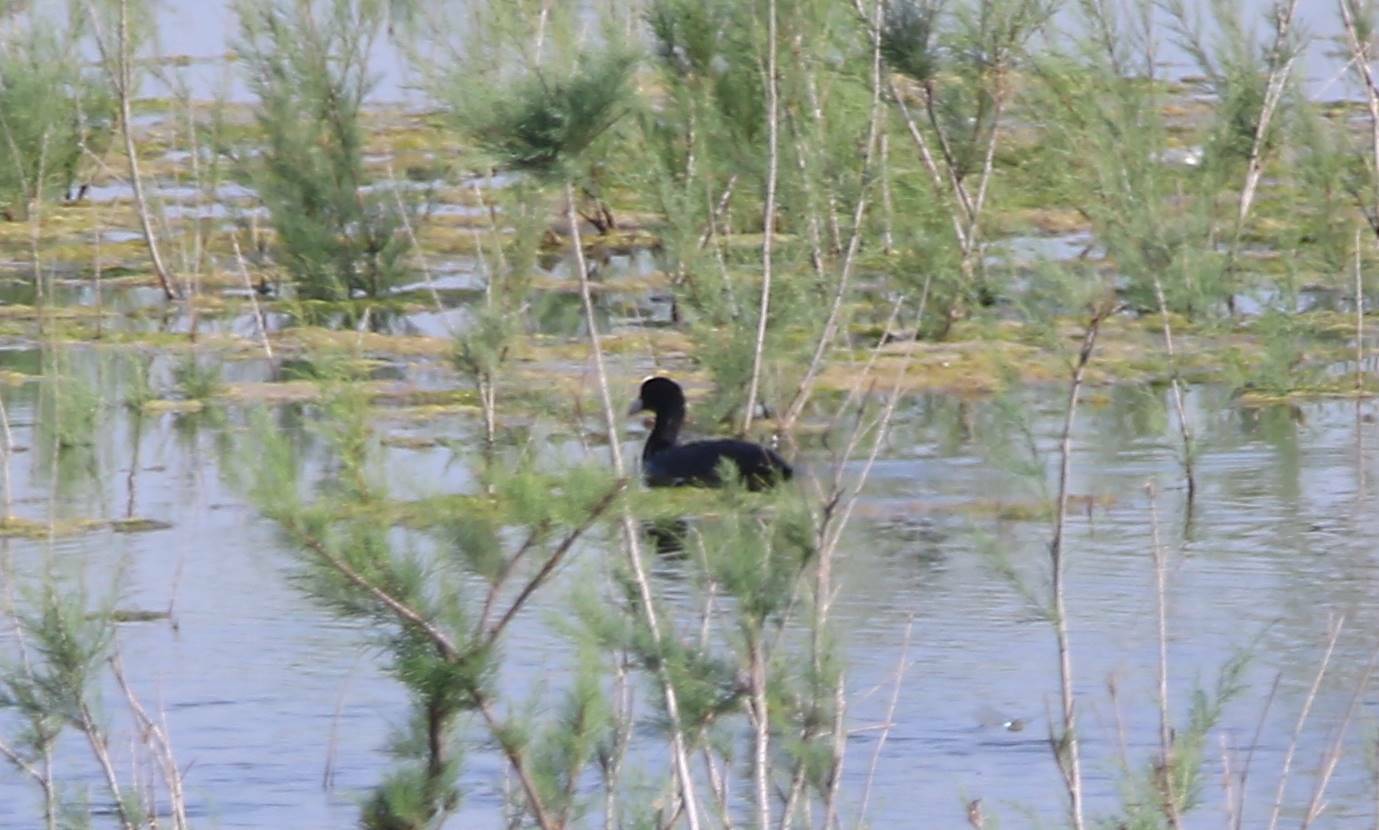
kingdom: Animalia
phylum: Chordata
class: Aves
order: Gruiformes
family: Rallidae
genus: Fulica
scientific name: Fulica atra
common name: Eurasian coot
